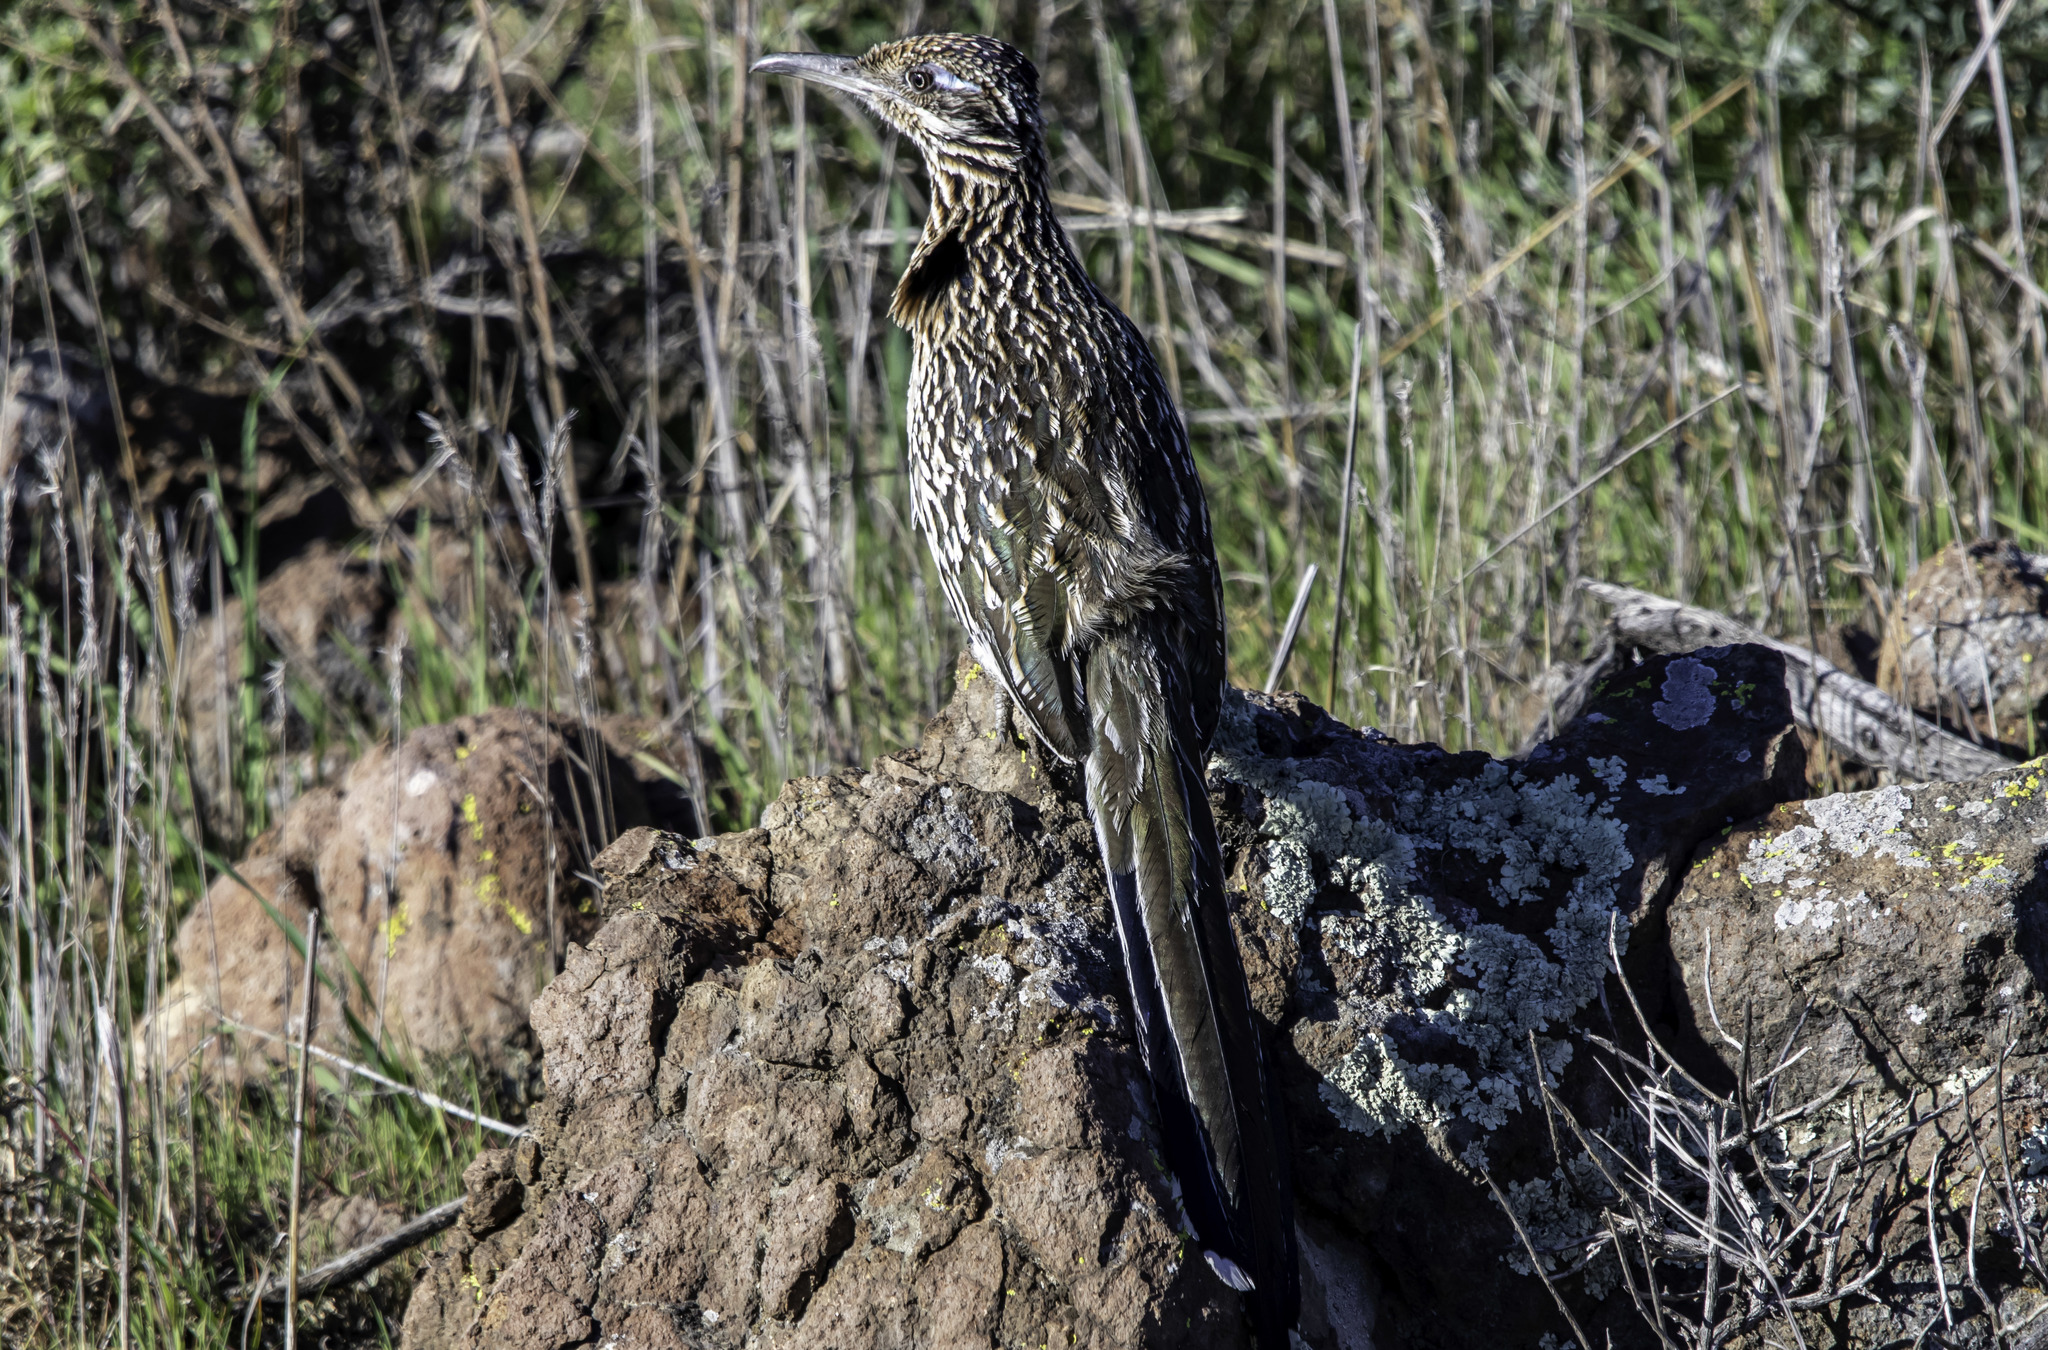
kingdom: Animalia
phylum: Chordata
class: Aves
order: Cuculiformes
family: Cuculidae
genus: Geococcyx
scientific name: Geococcyx californianus
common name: Greater roadrunner
